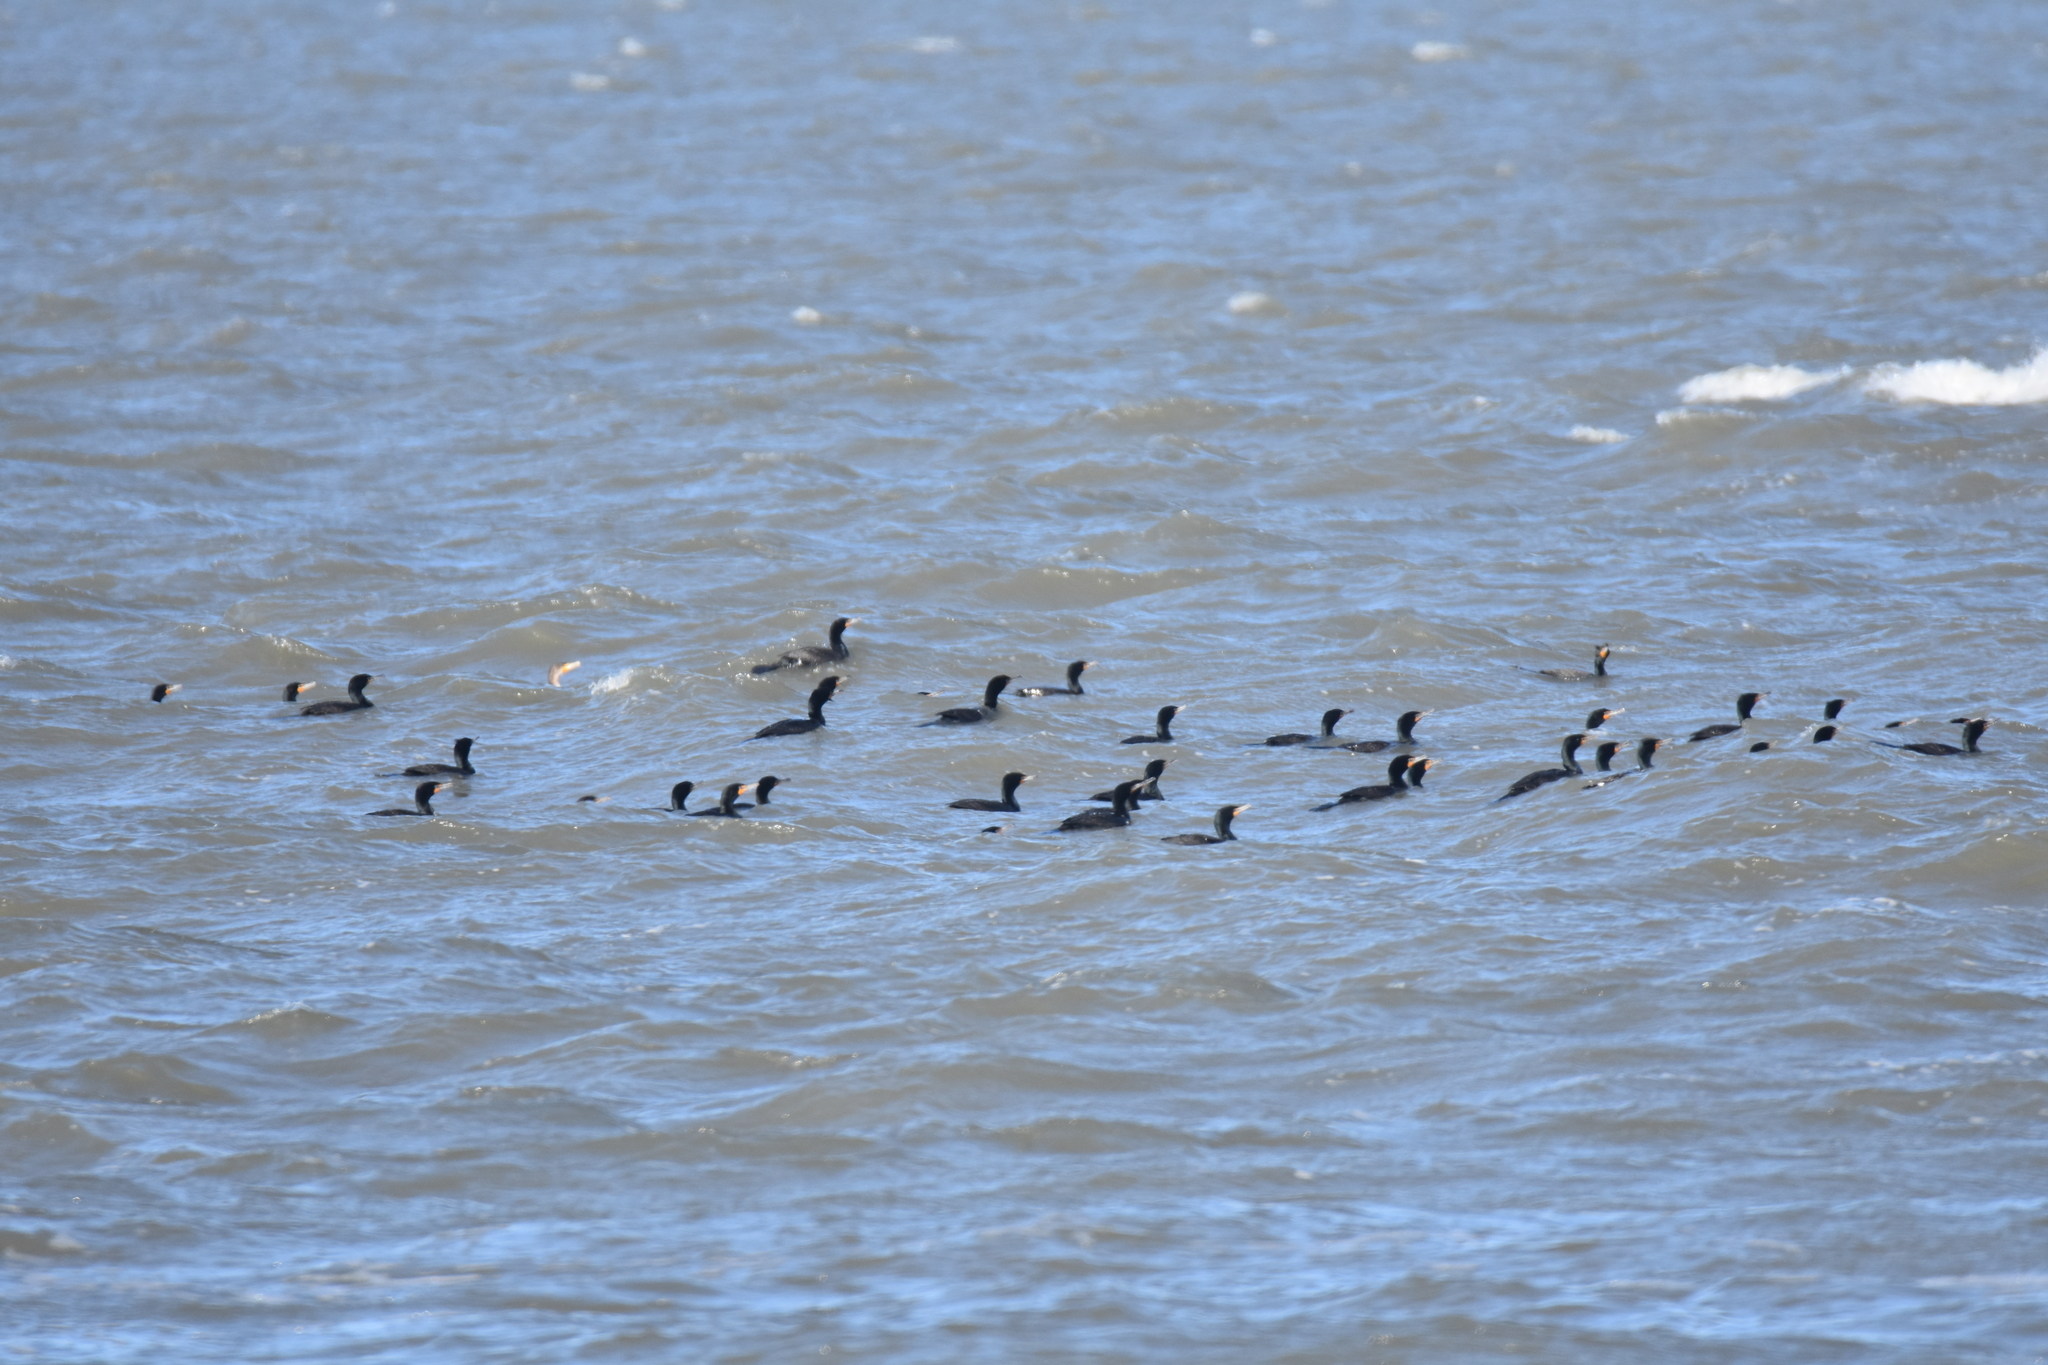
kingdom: Animalia
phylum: Chordata
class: Aves
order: Suliformes
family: Phalacrocoracidae
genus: Phalacrocorax
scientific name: Phalacrocorax auritus
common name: Double-crested cormorant
